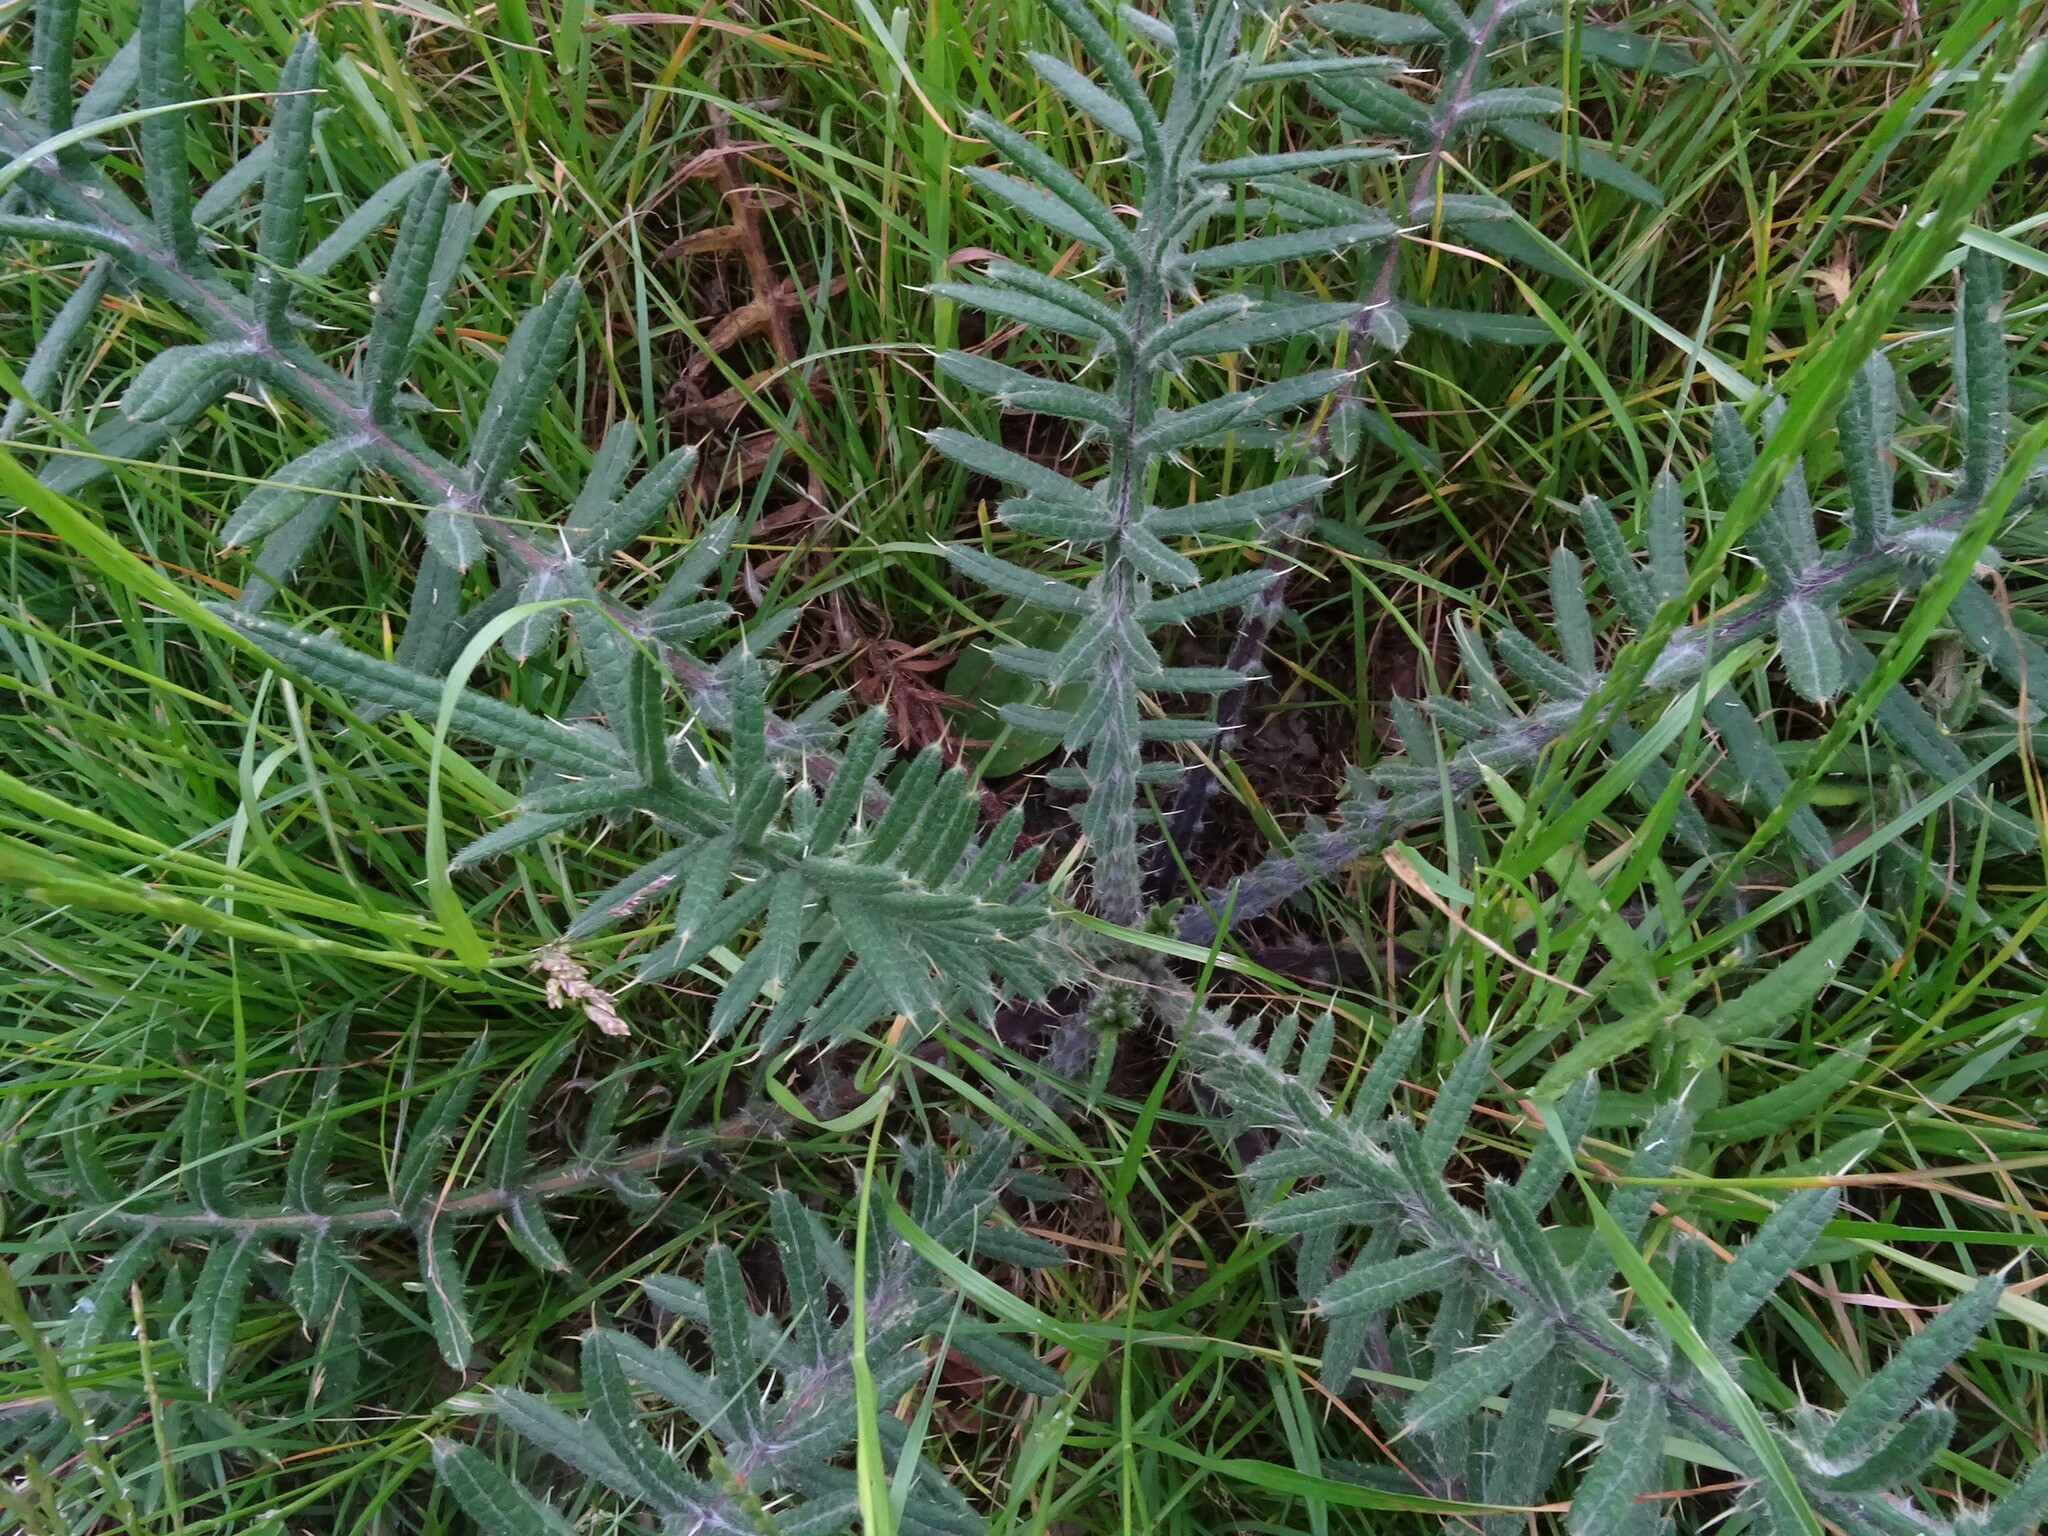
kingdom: Plantae
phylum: Tracheophyta
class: Magnoliopsida
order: Asterales
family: Asteraceae
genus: Lophiolepis
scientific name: Lophiolepis eriophora
